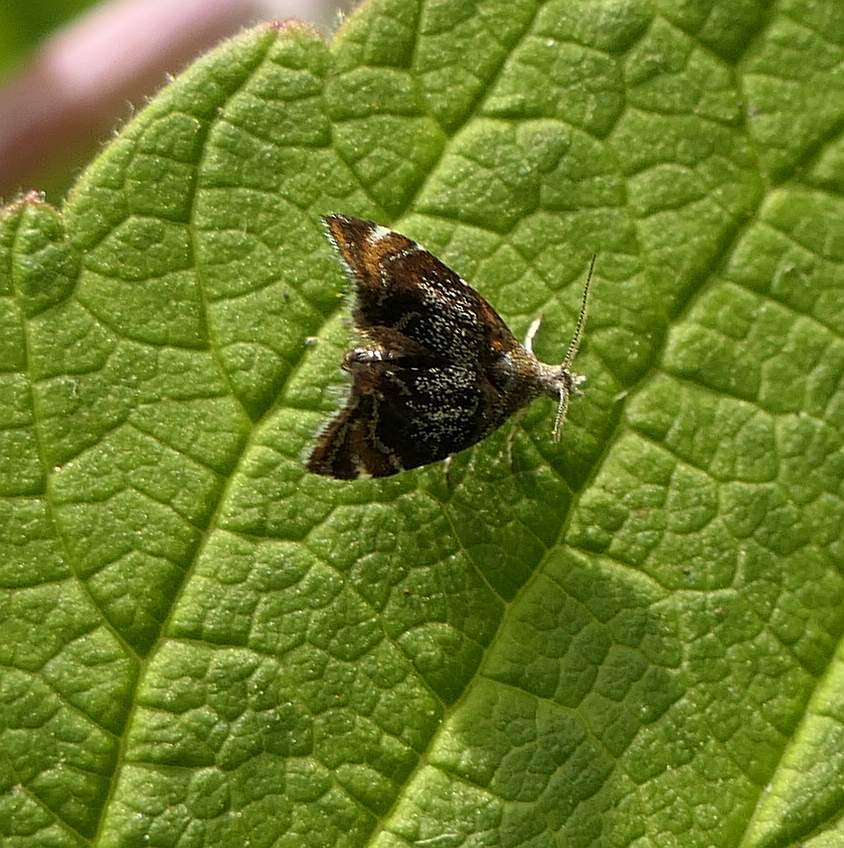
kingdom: Animalia
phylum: Arthropoda
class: Insecta
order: Lepidoptera
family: Choreutidae
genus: Prochoreutis
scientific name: Prochoreutis inflatella
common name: Skullcap skeletonizer moth
